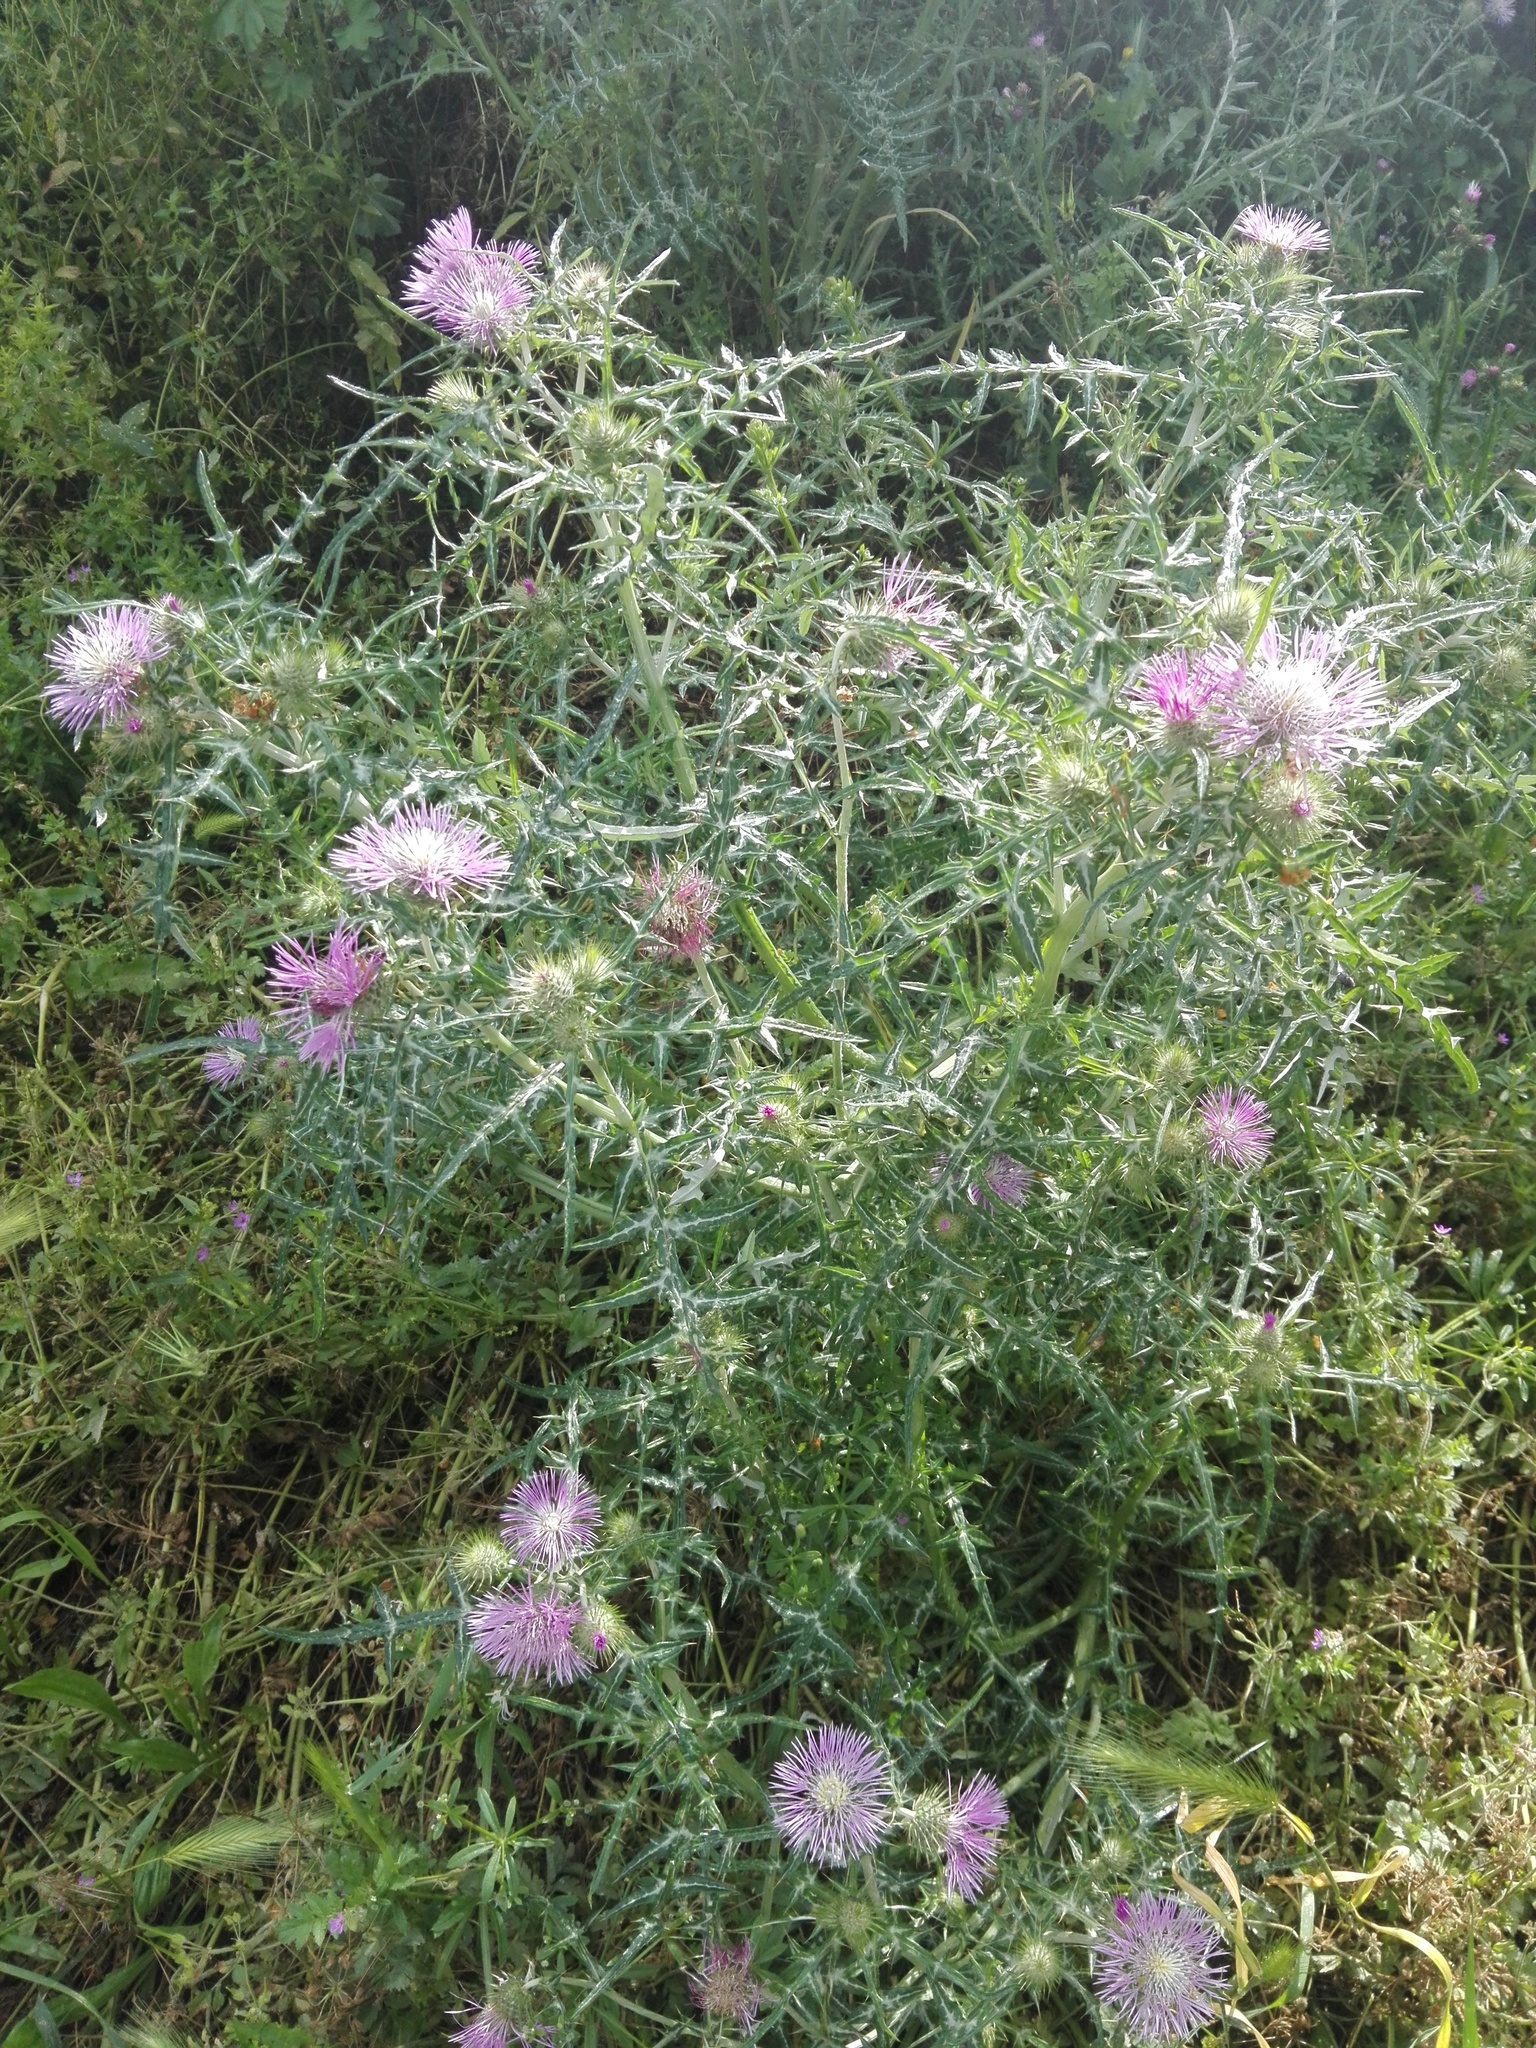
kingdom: Plantae
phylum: Tracheophyta
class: Magnoliopsida
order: Asterales
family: Asteraceae
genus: Galactites
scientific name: Galactites tomentosa
